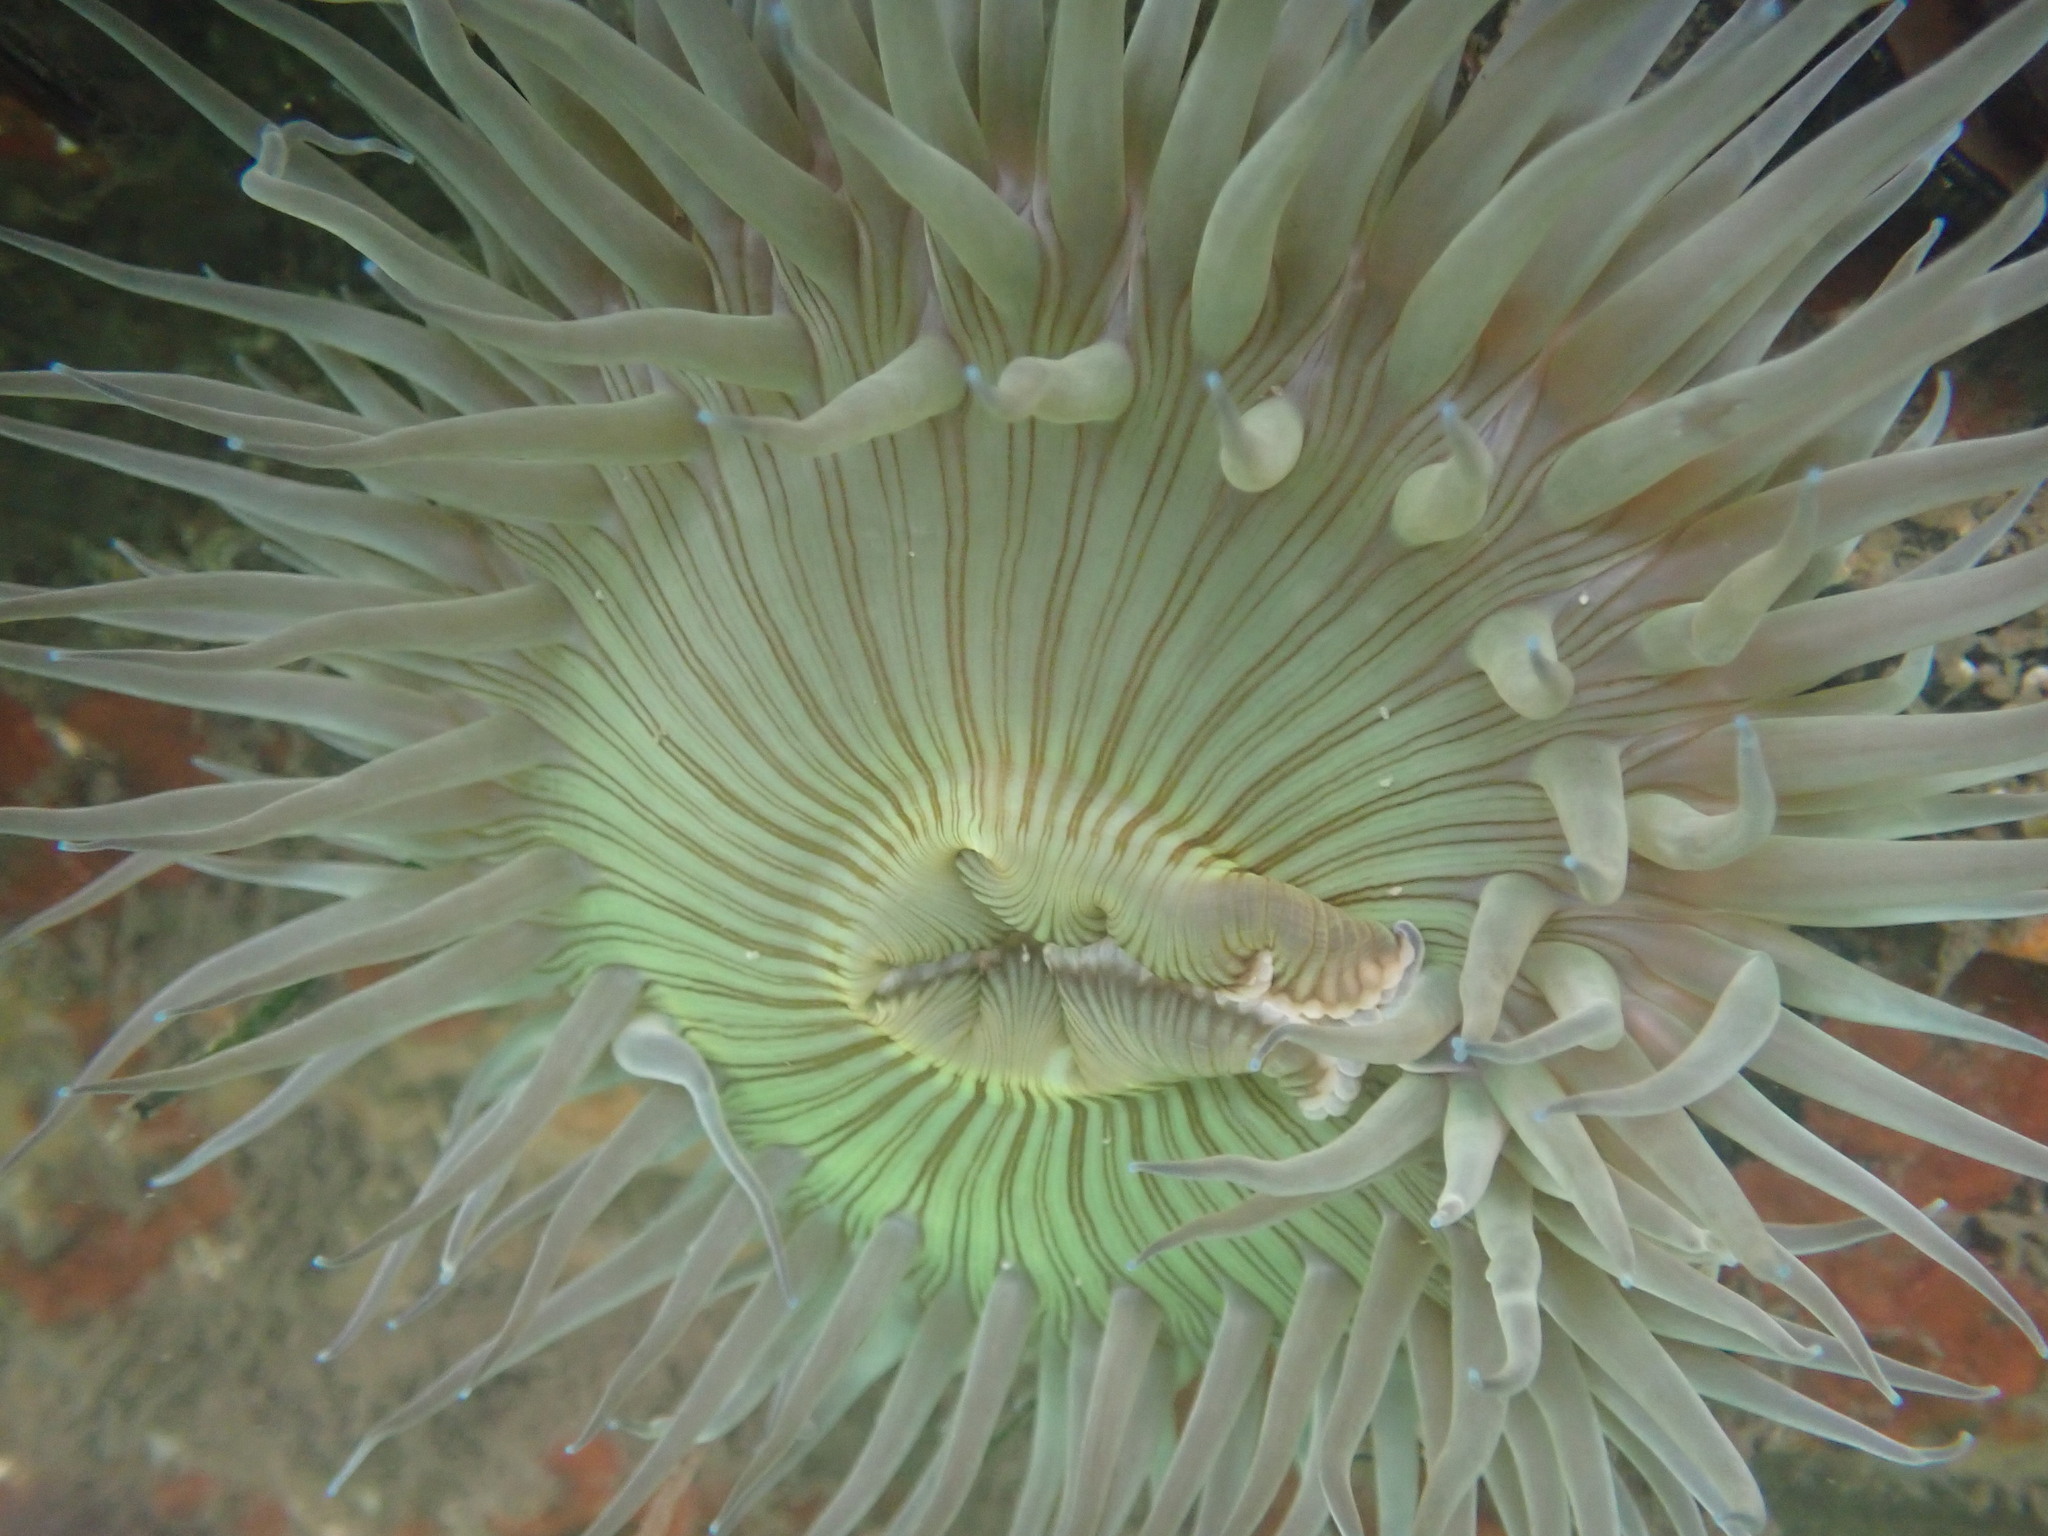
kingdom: Animalia
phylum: Cnidaria
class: Anthozoa
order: Actiniaria
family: Actiniidae
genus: Anthopleura
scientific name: Anthopleura sola
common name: Sun anemone
